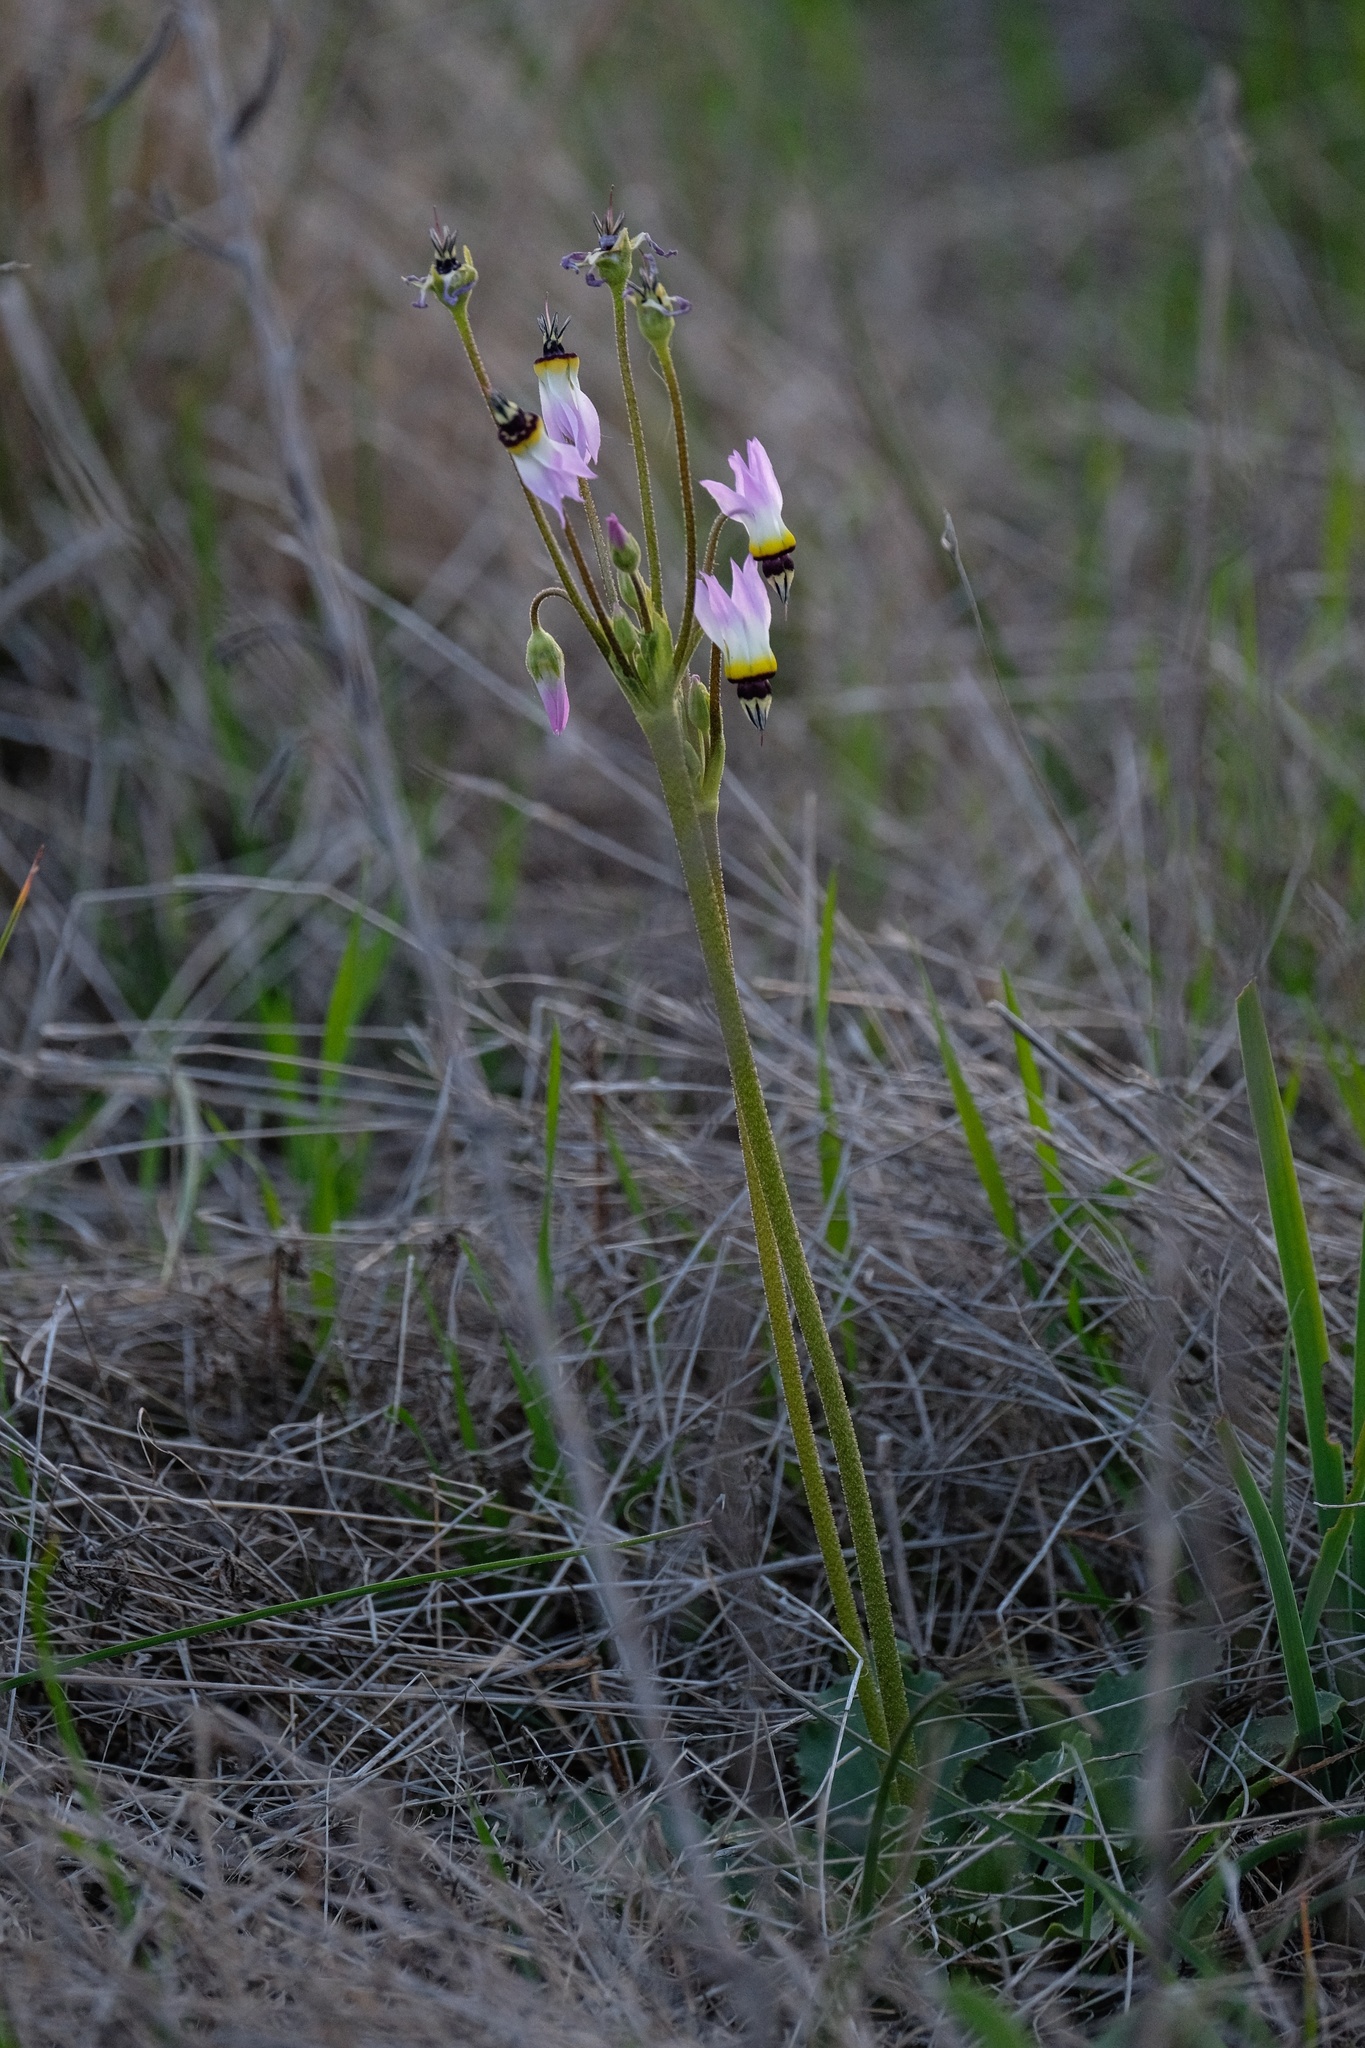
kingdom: Plantae
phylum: Tracheophyta
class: Magnoliopsida
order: Ericales
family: Primulaceae
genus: Dodecatheon
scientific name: Dodecatheon clevelandii
